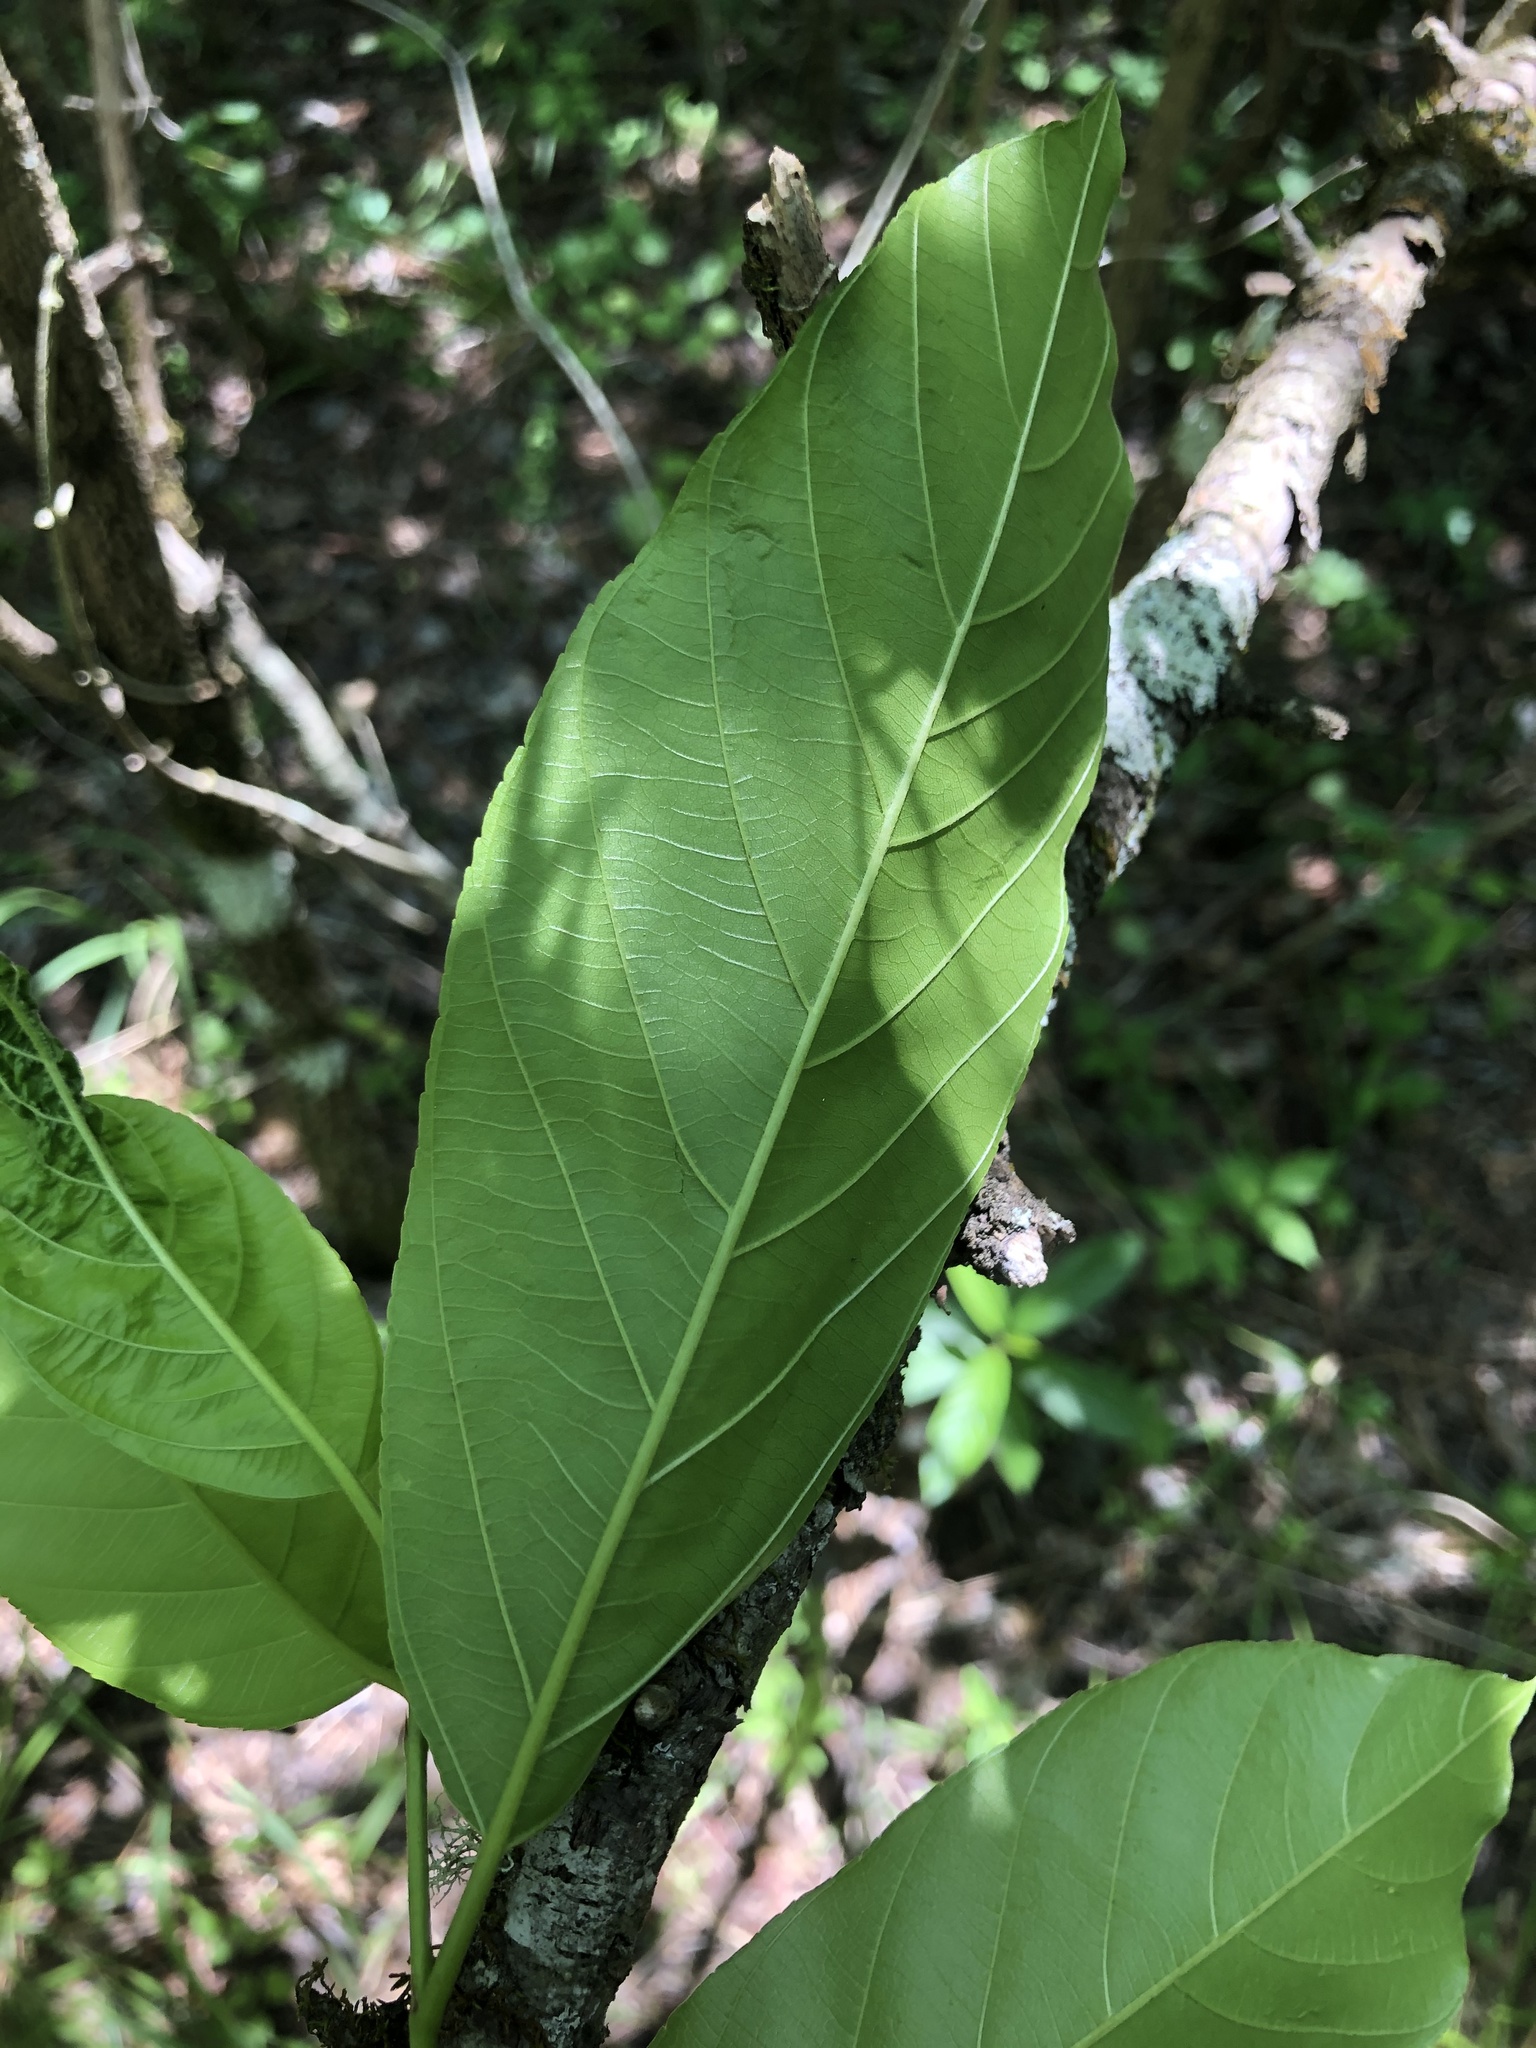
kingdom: Plantae
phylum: Tracheophyta
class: Magnoliopsida
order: Rosales
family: Rhamnaceae
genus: Frangula
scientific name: Frangula caroliniana
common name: Carolina buckthorn
